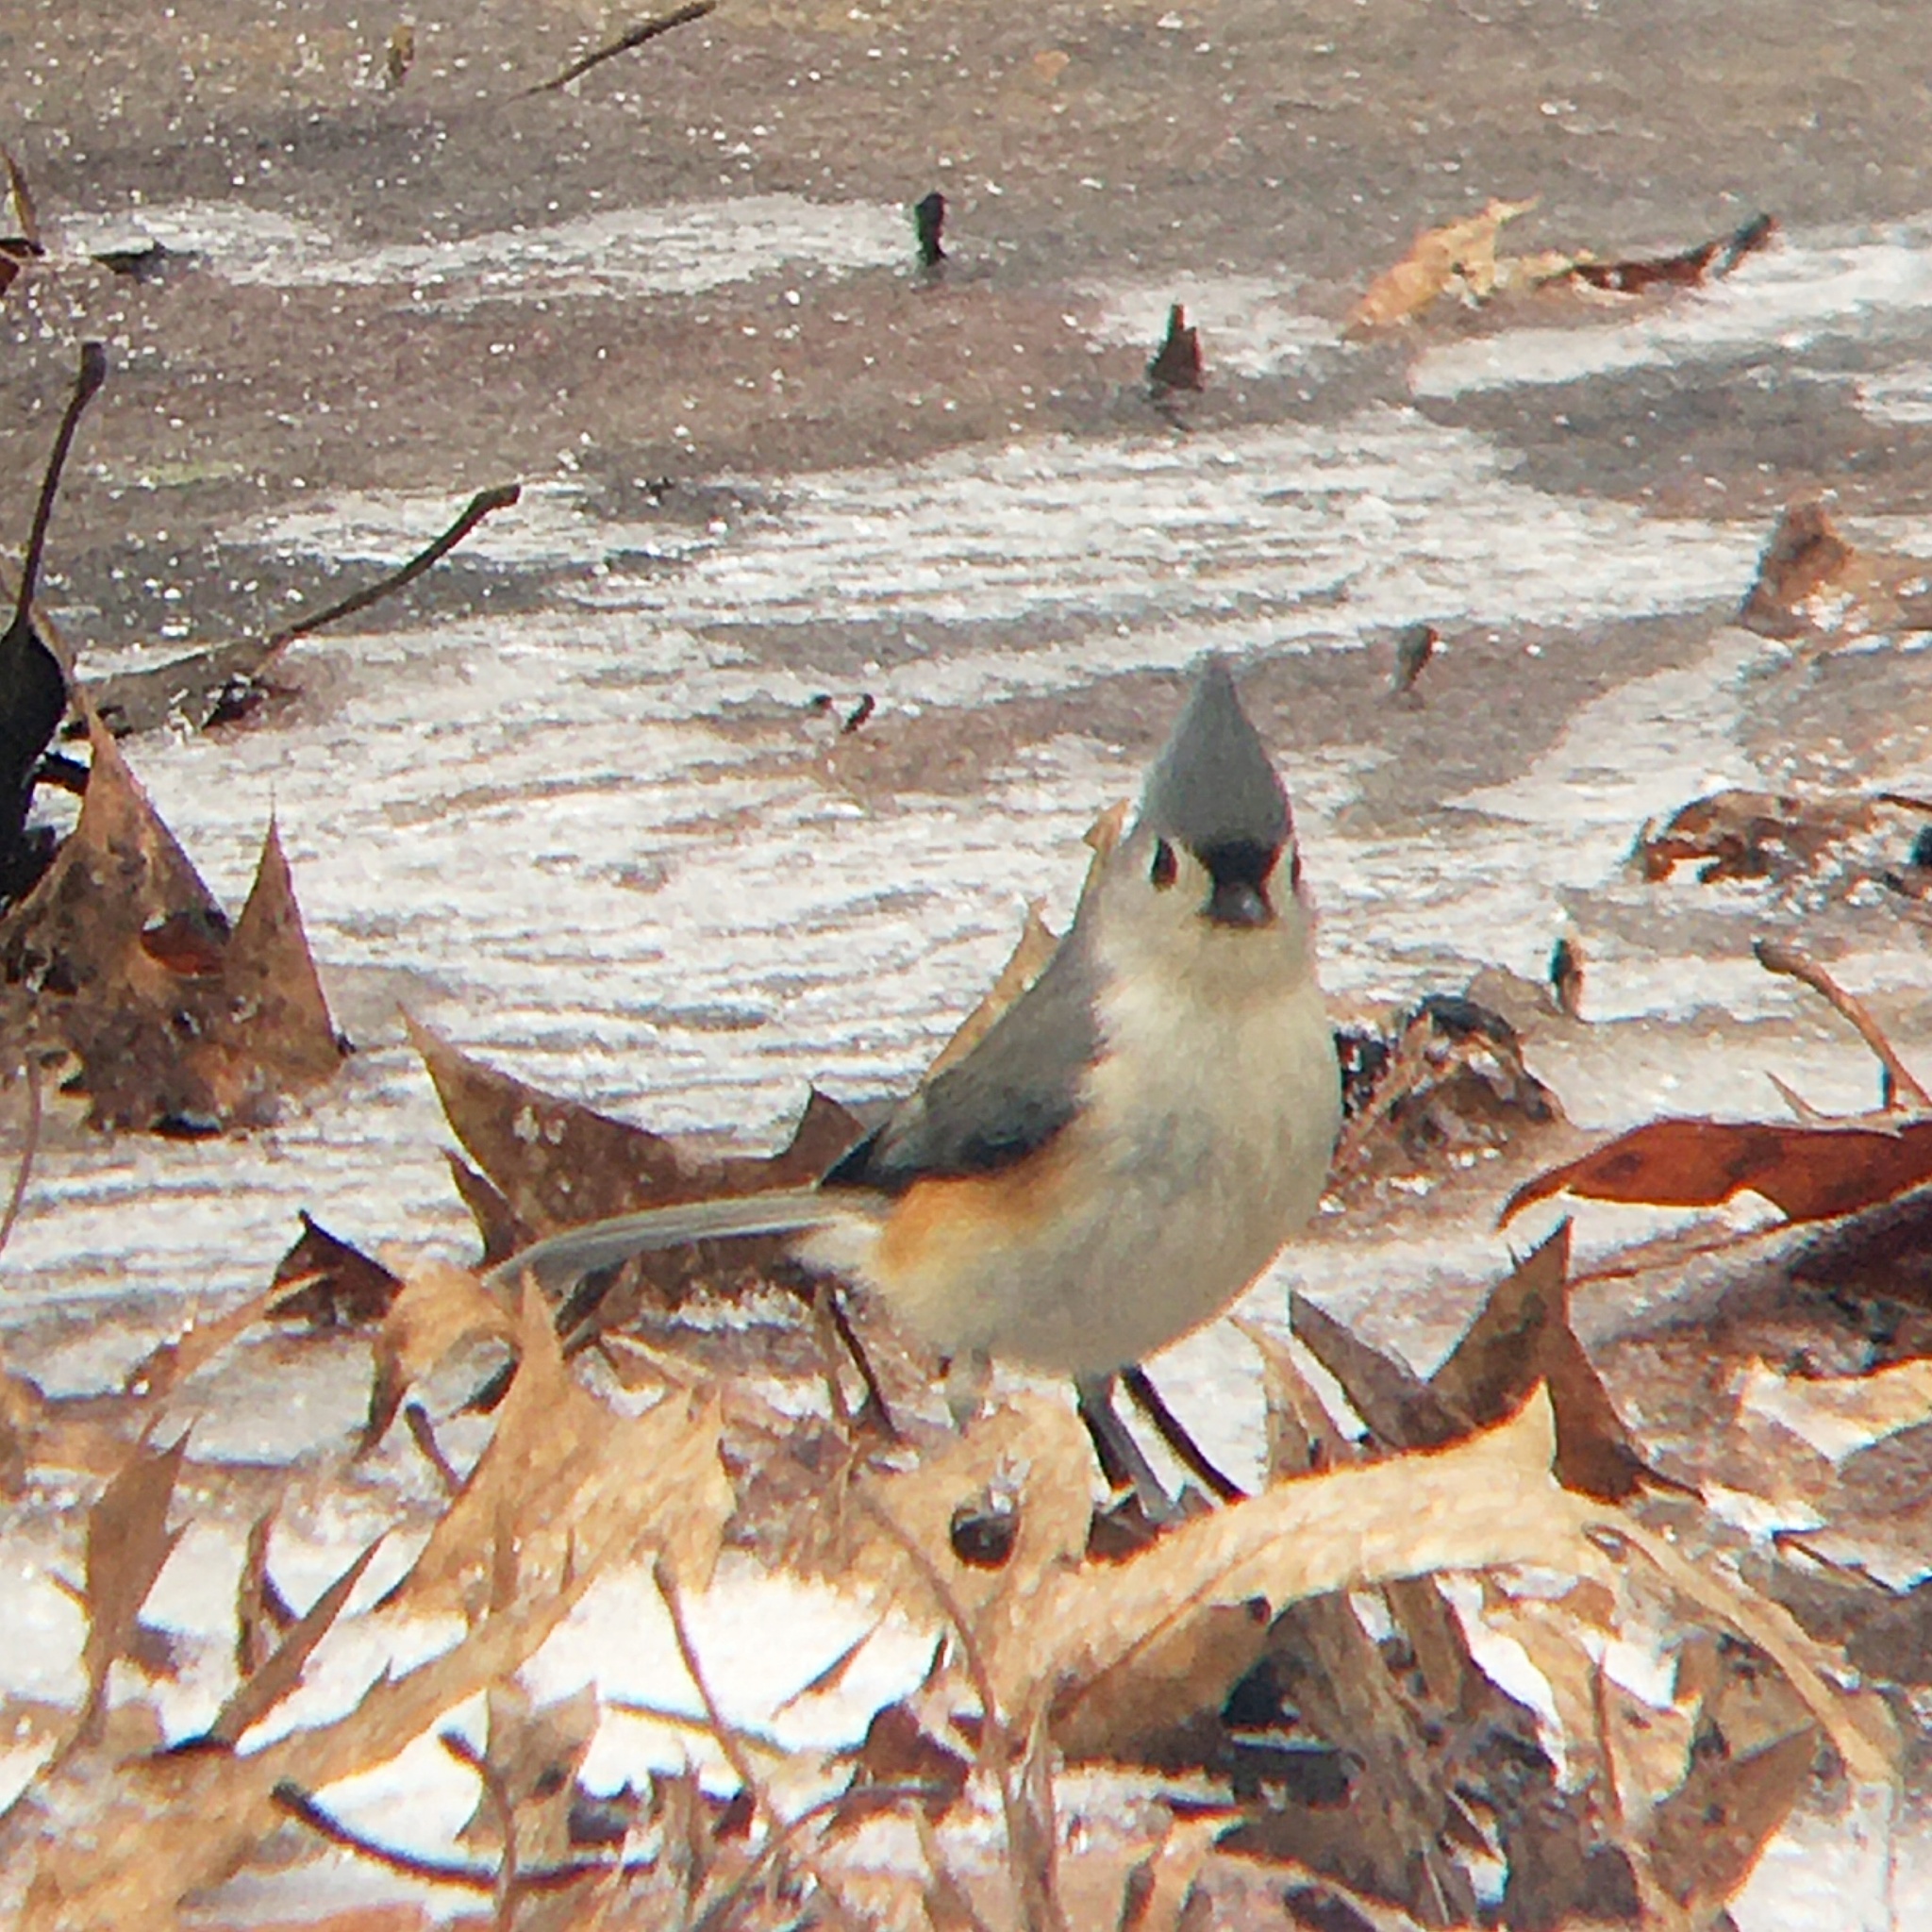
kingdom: Animalia
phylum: Chordata
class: Aves
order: Passeriformes
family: Paridae
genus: Baeolophus
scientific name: Baeolophus bicolor
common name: Tufted titmouse
